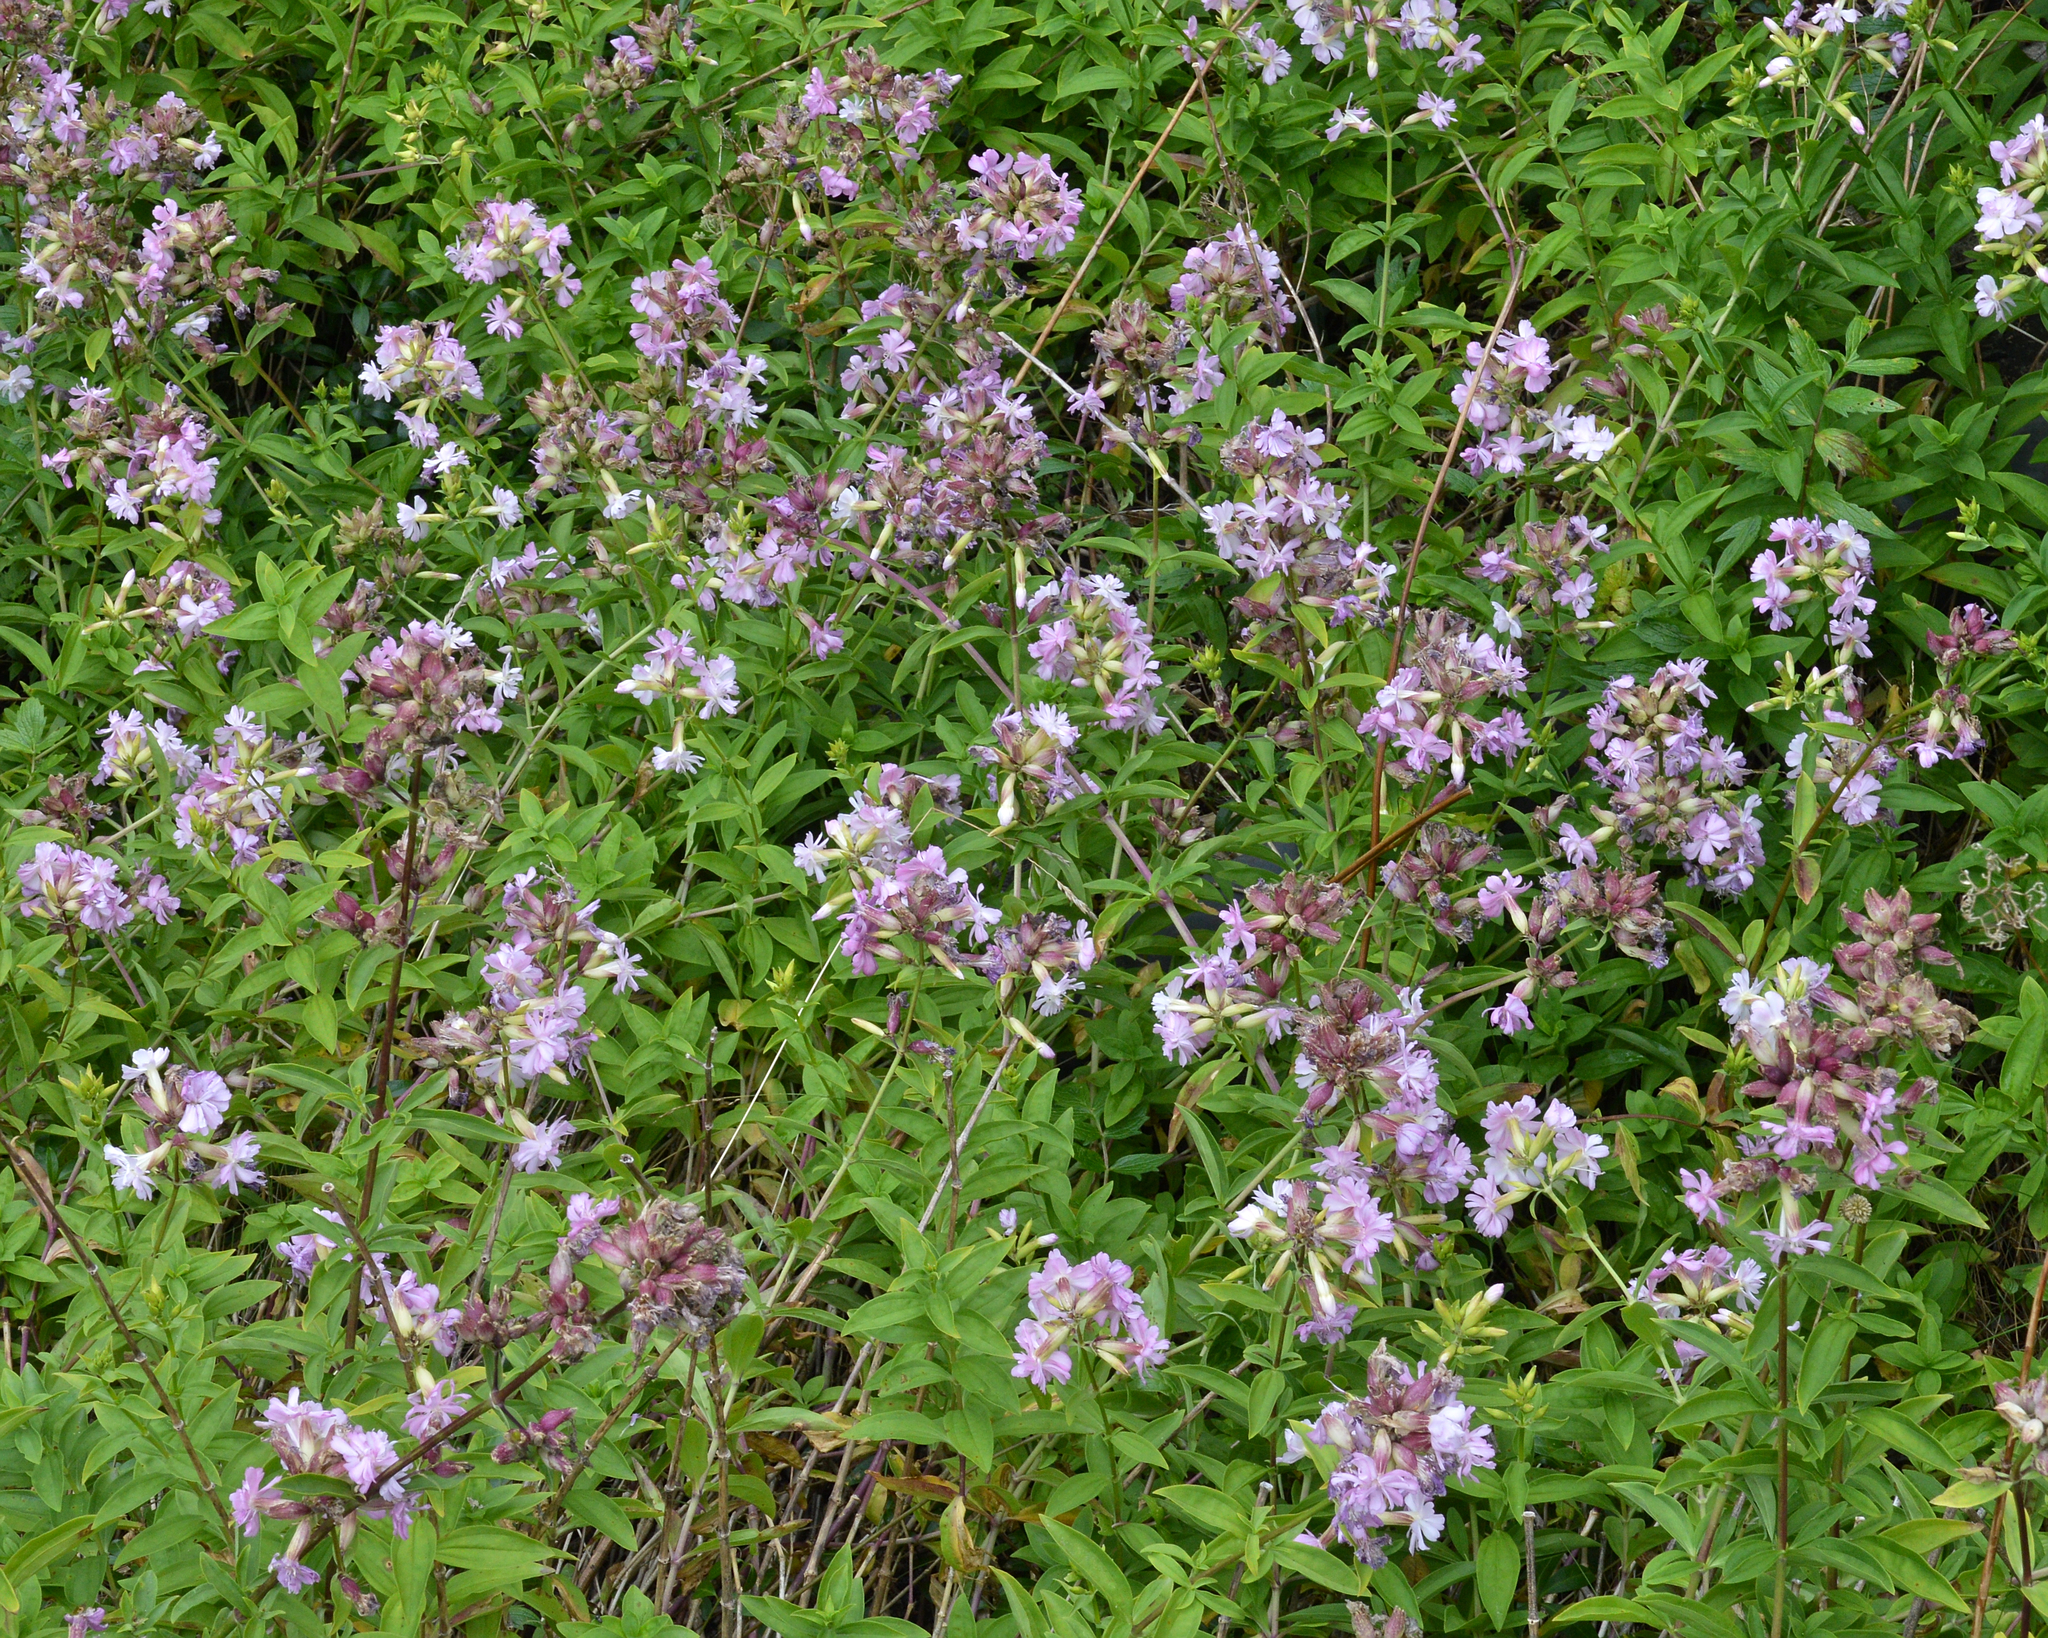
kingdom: Plantae
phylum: Tracheophyta
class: Magnoliopsida
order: Caryophyllales
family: Caryophyllaceae
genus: Saponaria
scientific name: Saponaria officinalis
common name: Soapwort
